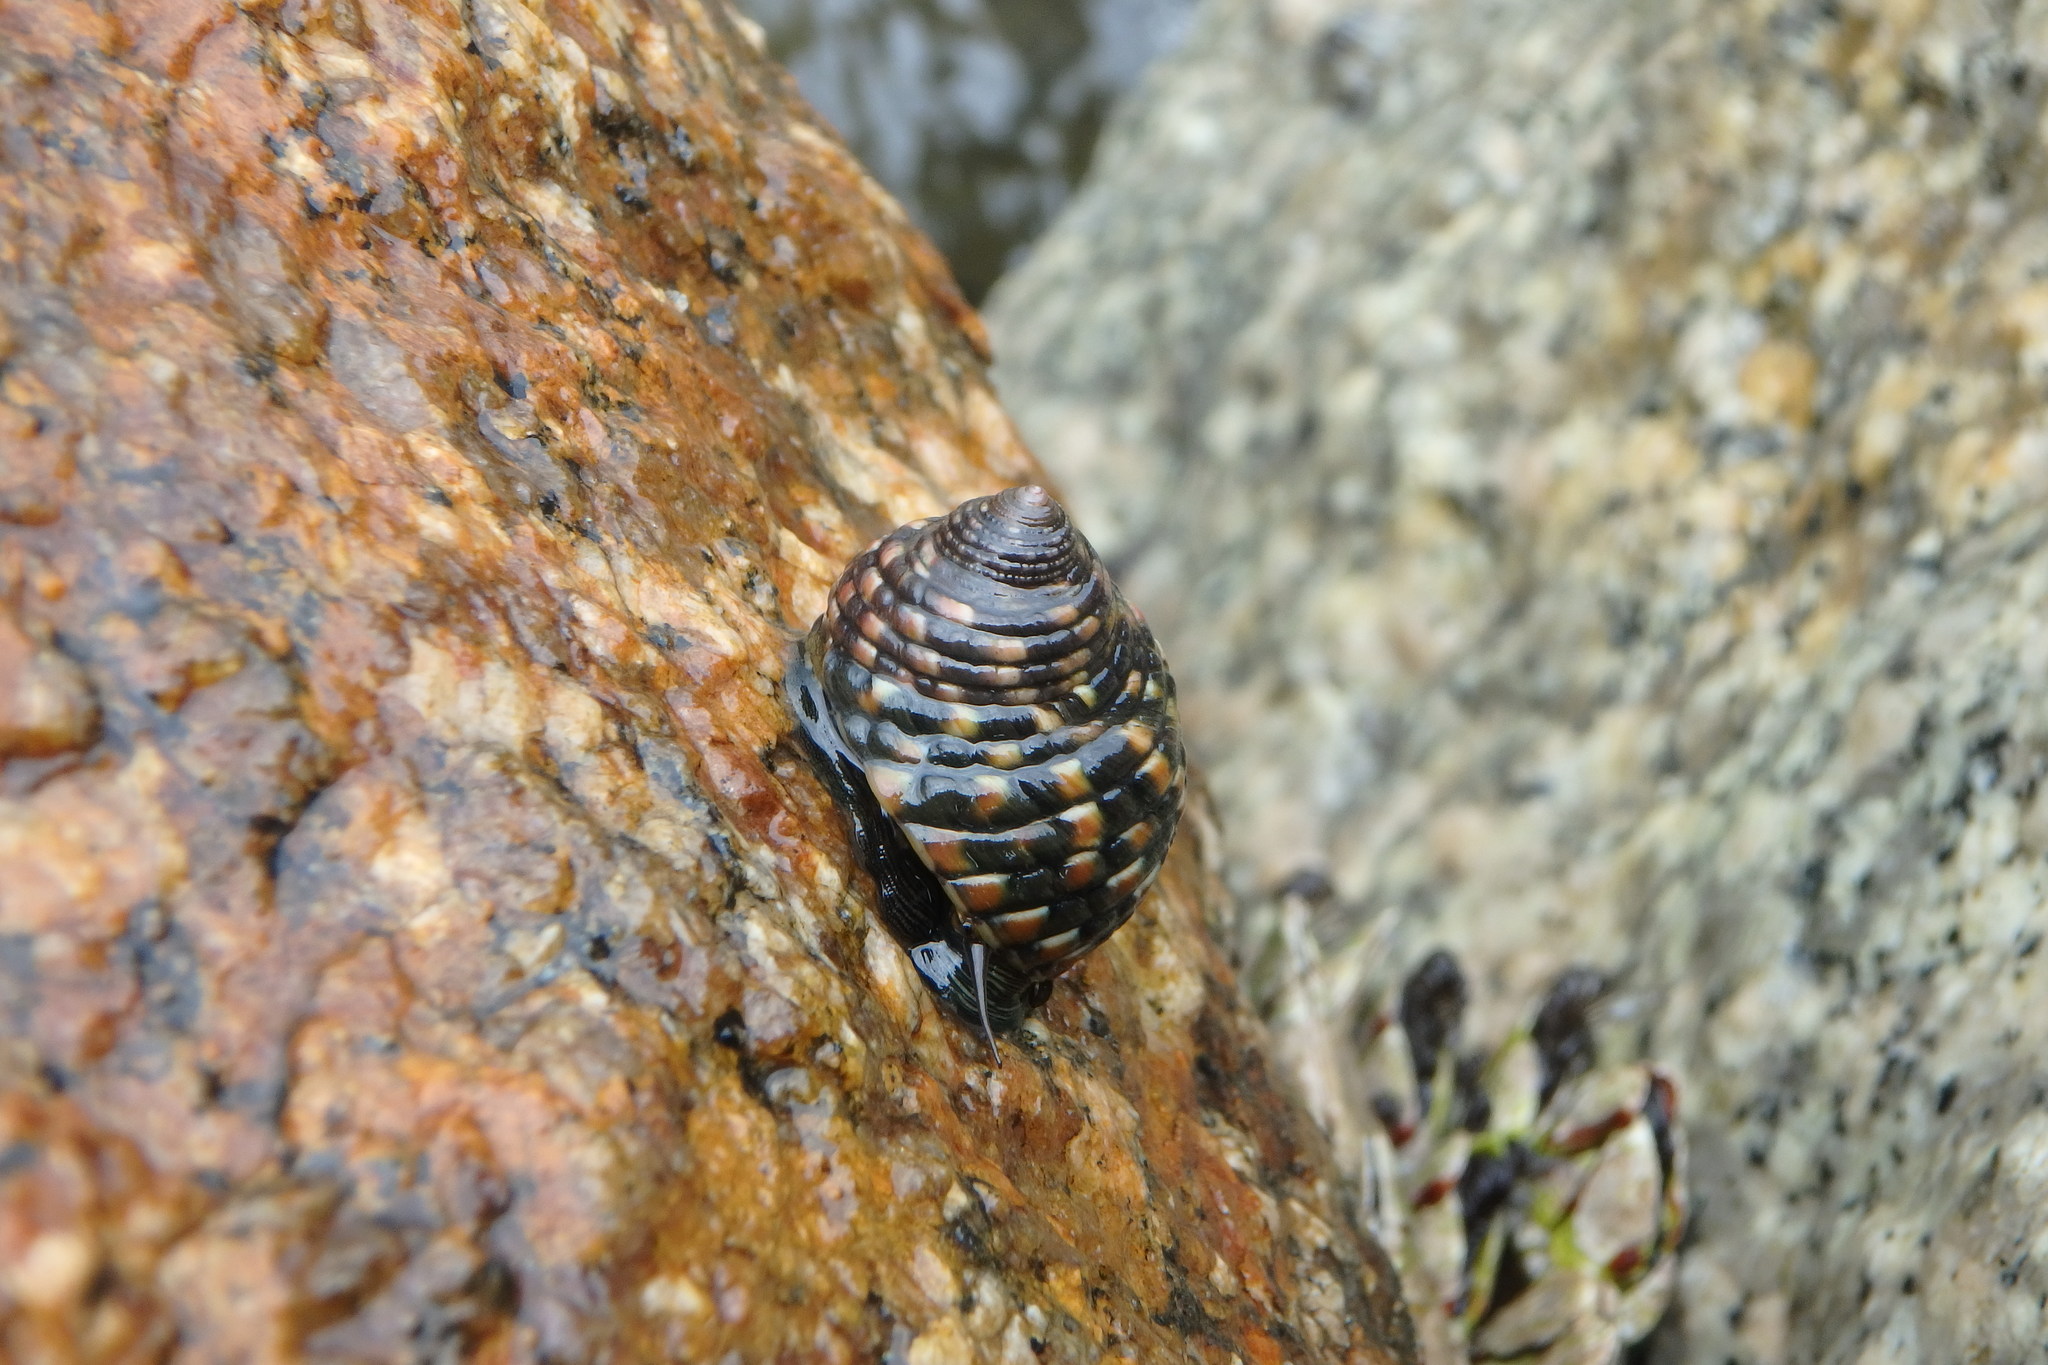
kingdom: Animalia
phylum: Mollusca
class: Gastropoda
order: Trochida
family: Trochidae
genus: Monodonta
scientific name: Monodonta confusa
